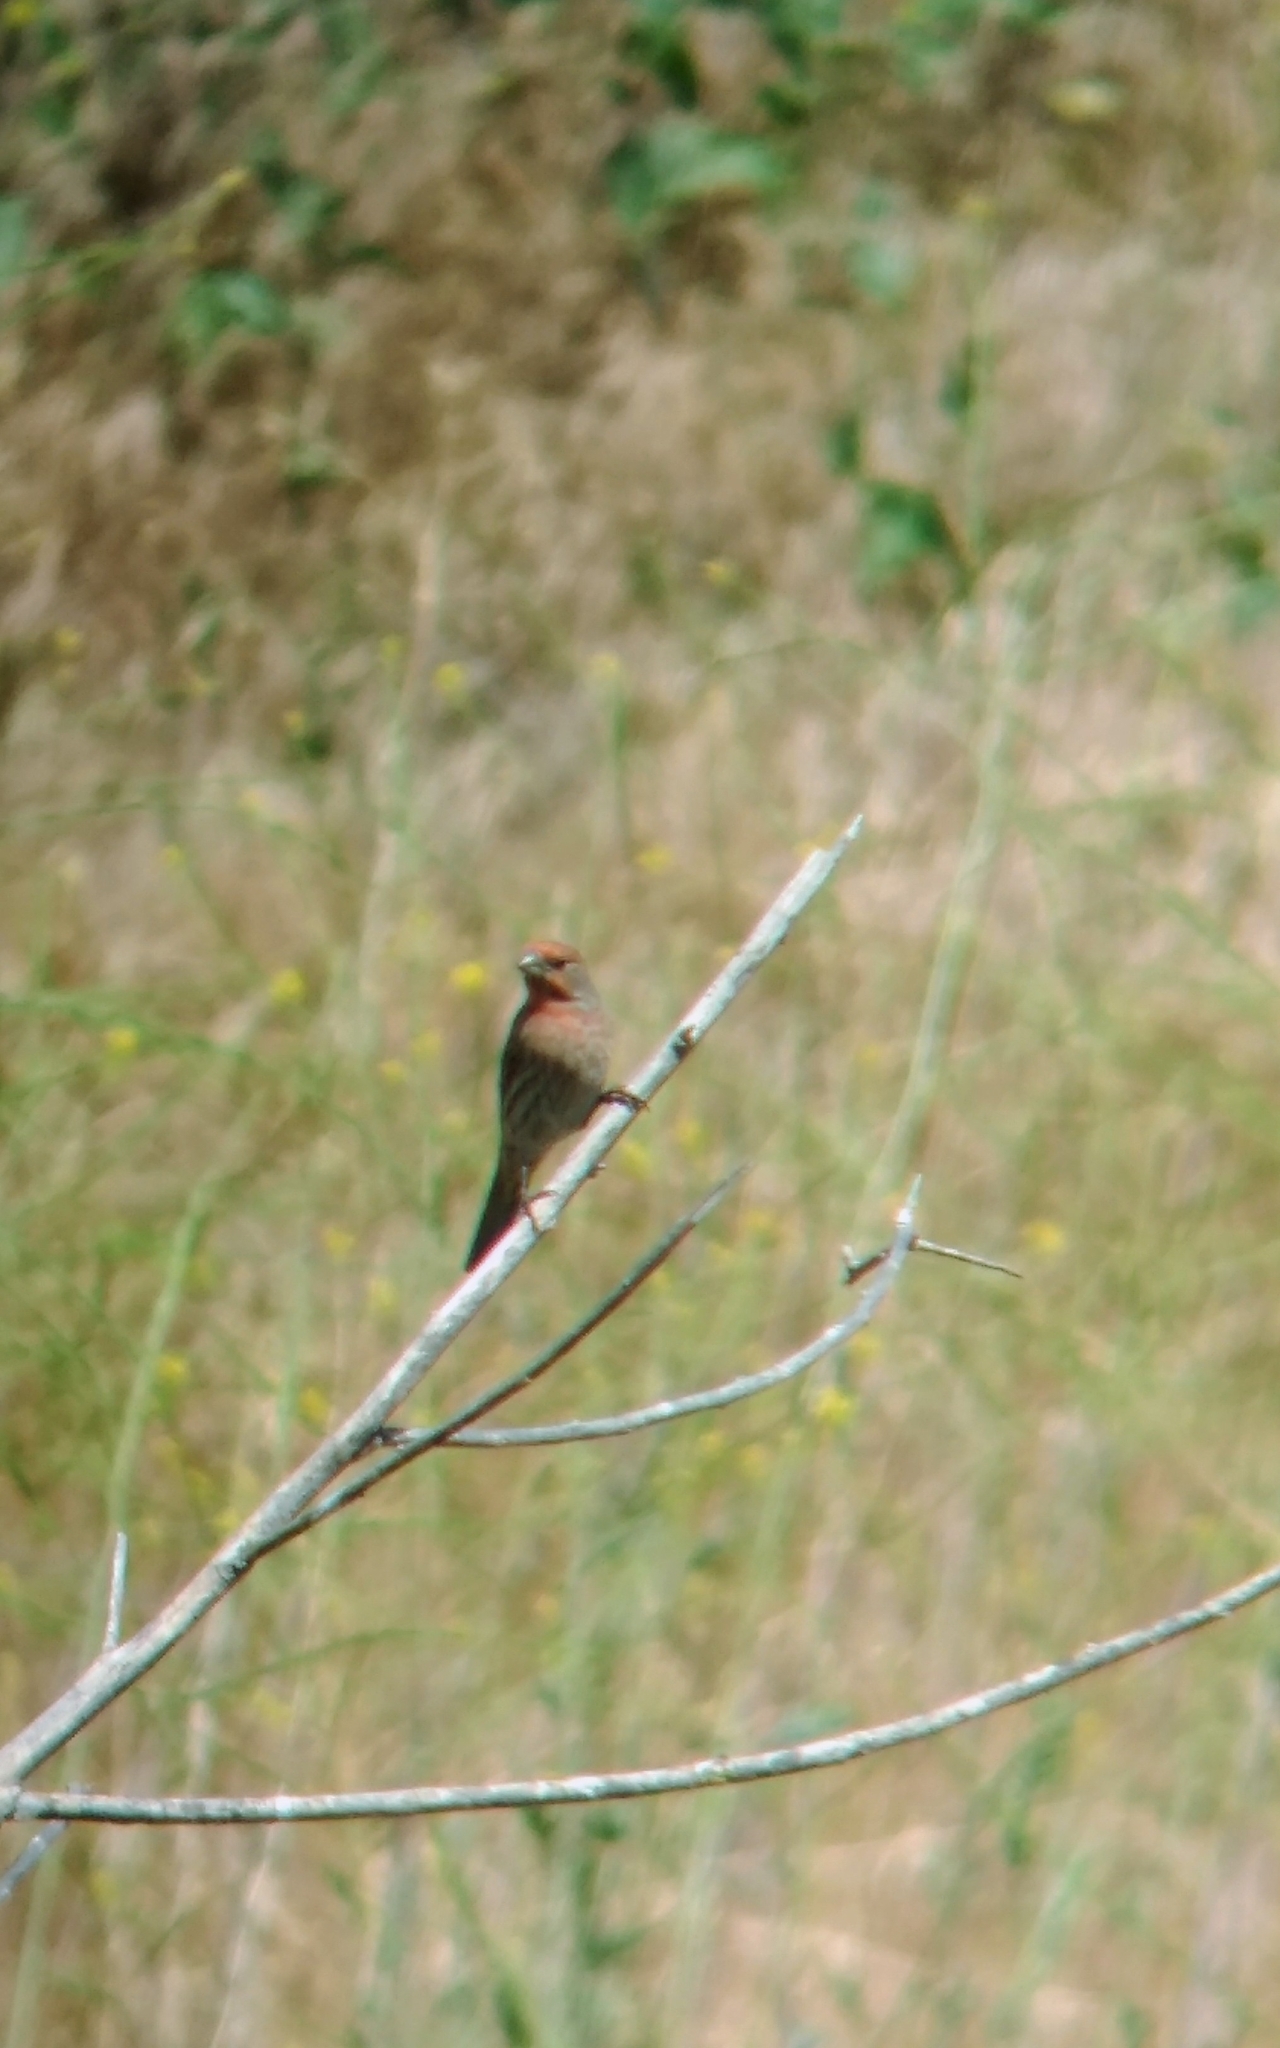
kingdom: Animalia
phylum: Chordata
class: Aves
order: Passeriformes
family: Fringillidae
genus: Haemorhous
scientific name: Haemorhous mexicanus
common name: House finch
